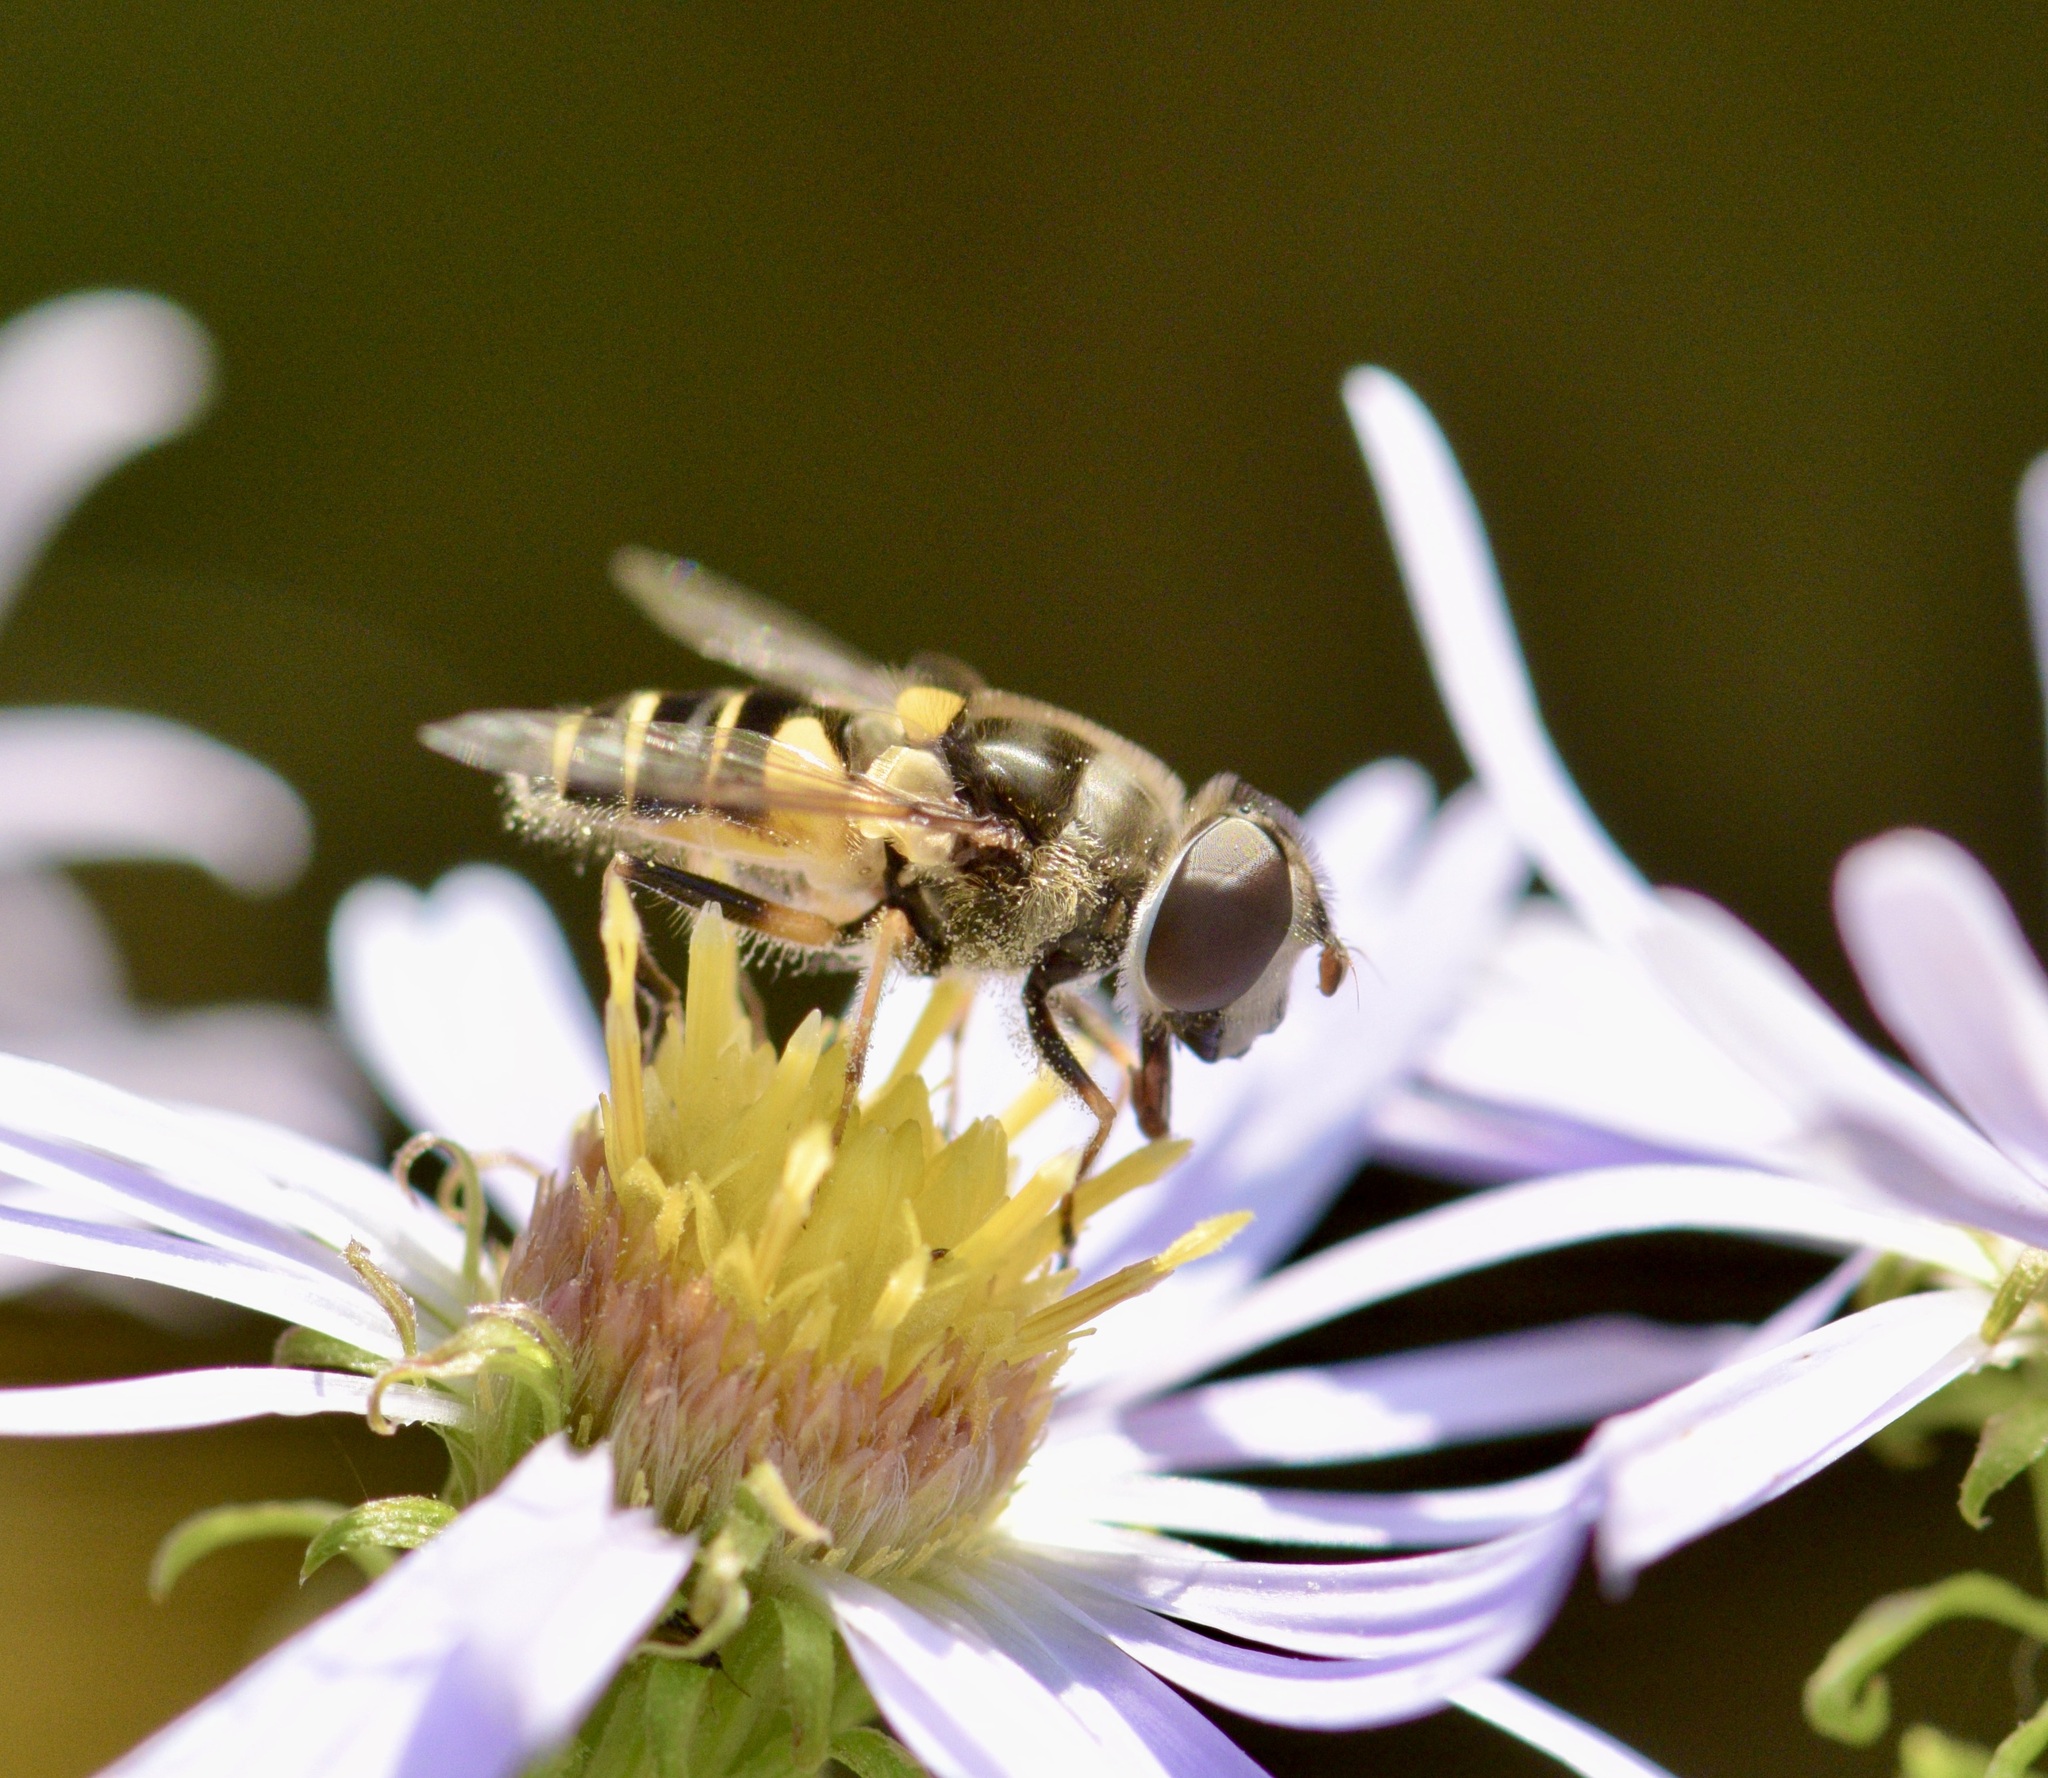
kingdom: Animalia
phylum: Arthropoda
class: Insecta
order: Diptera
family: Syrphidae
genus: Eristalis
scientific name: Eristalis transversa
